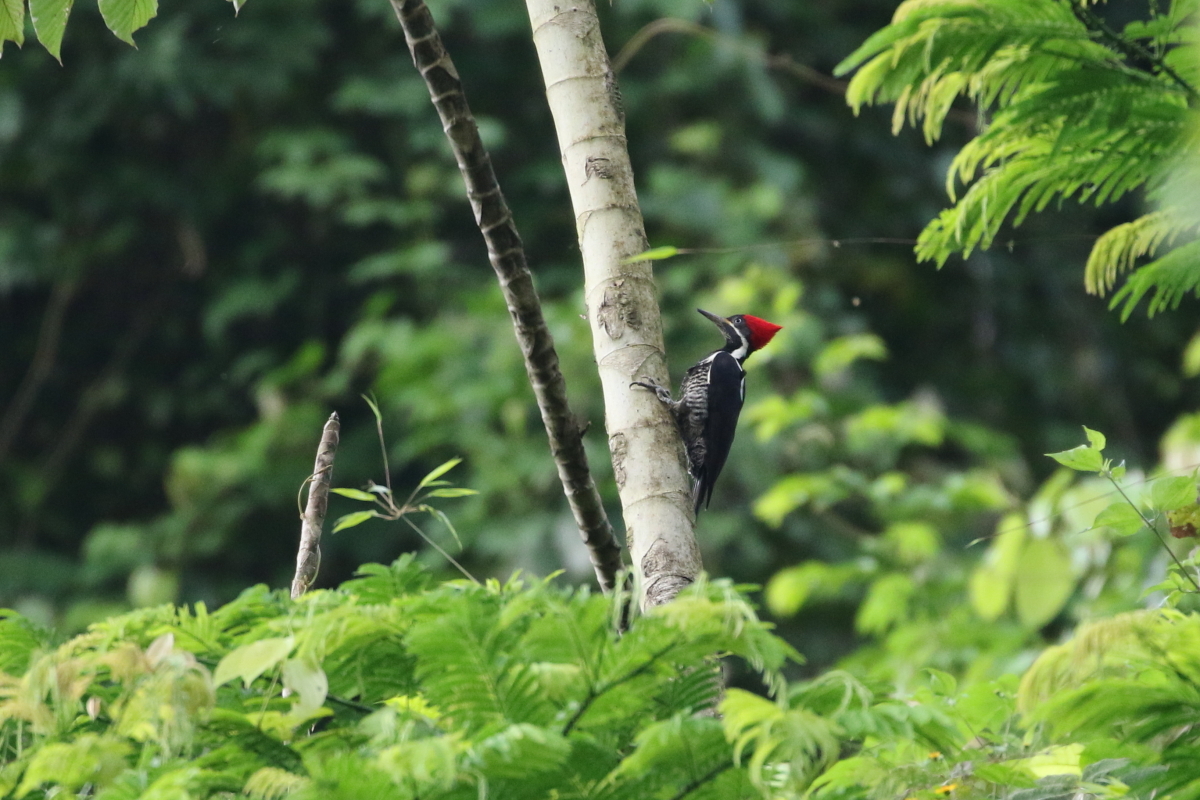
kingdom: Animalia
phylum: Chordata
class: Aves
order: Piciformes
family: Picidae
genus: Dryocopus
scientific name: Dryocopus lineatus
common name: Lineated woodpecker
